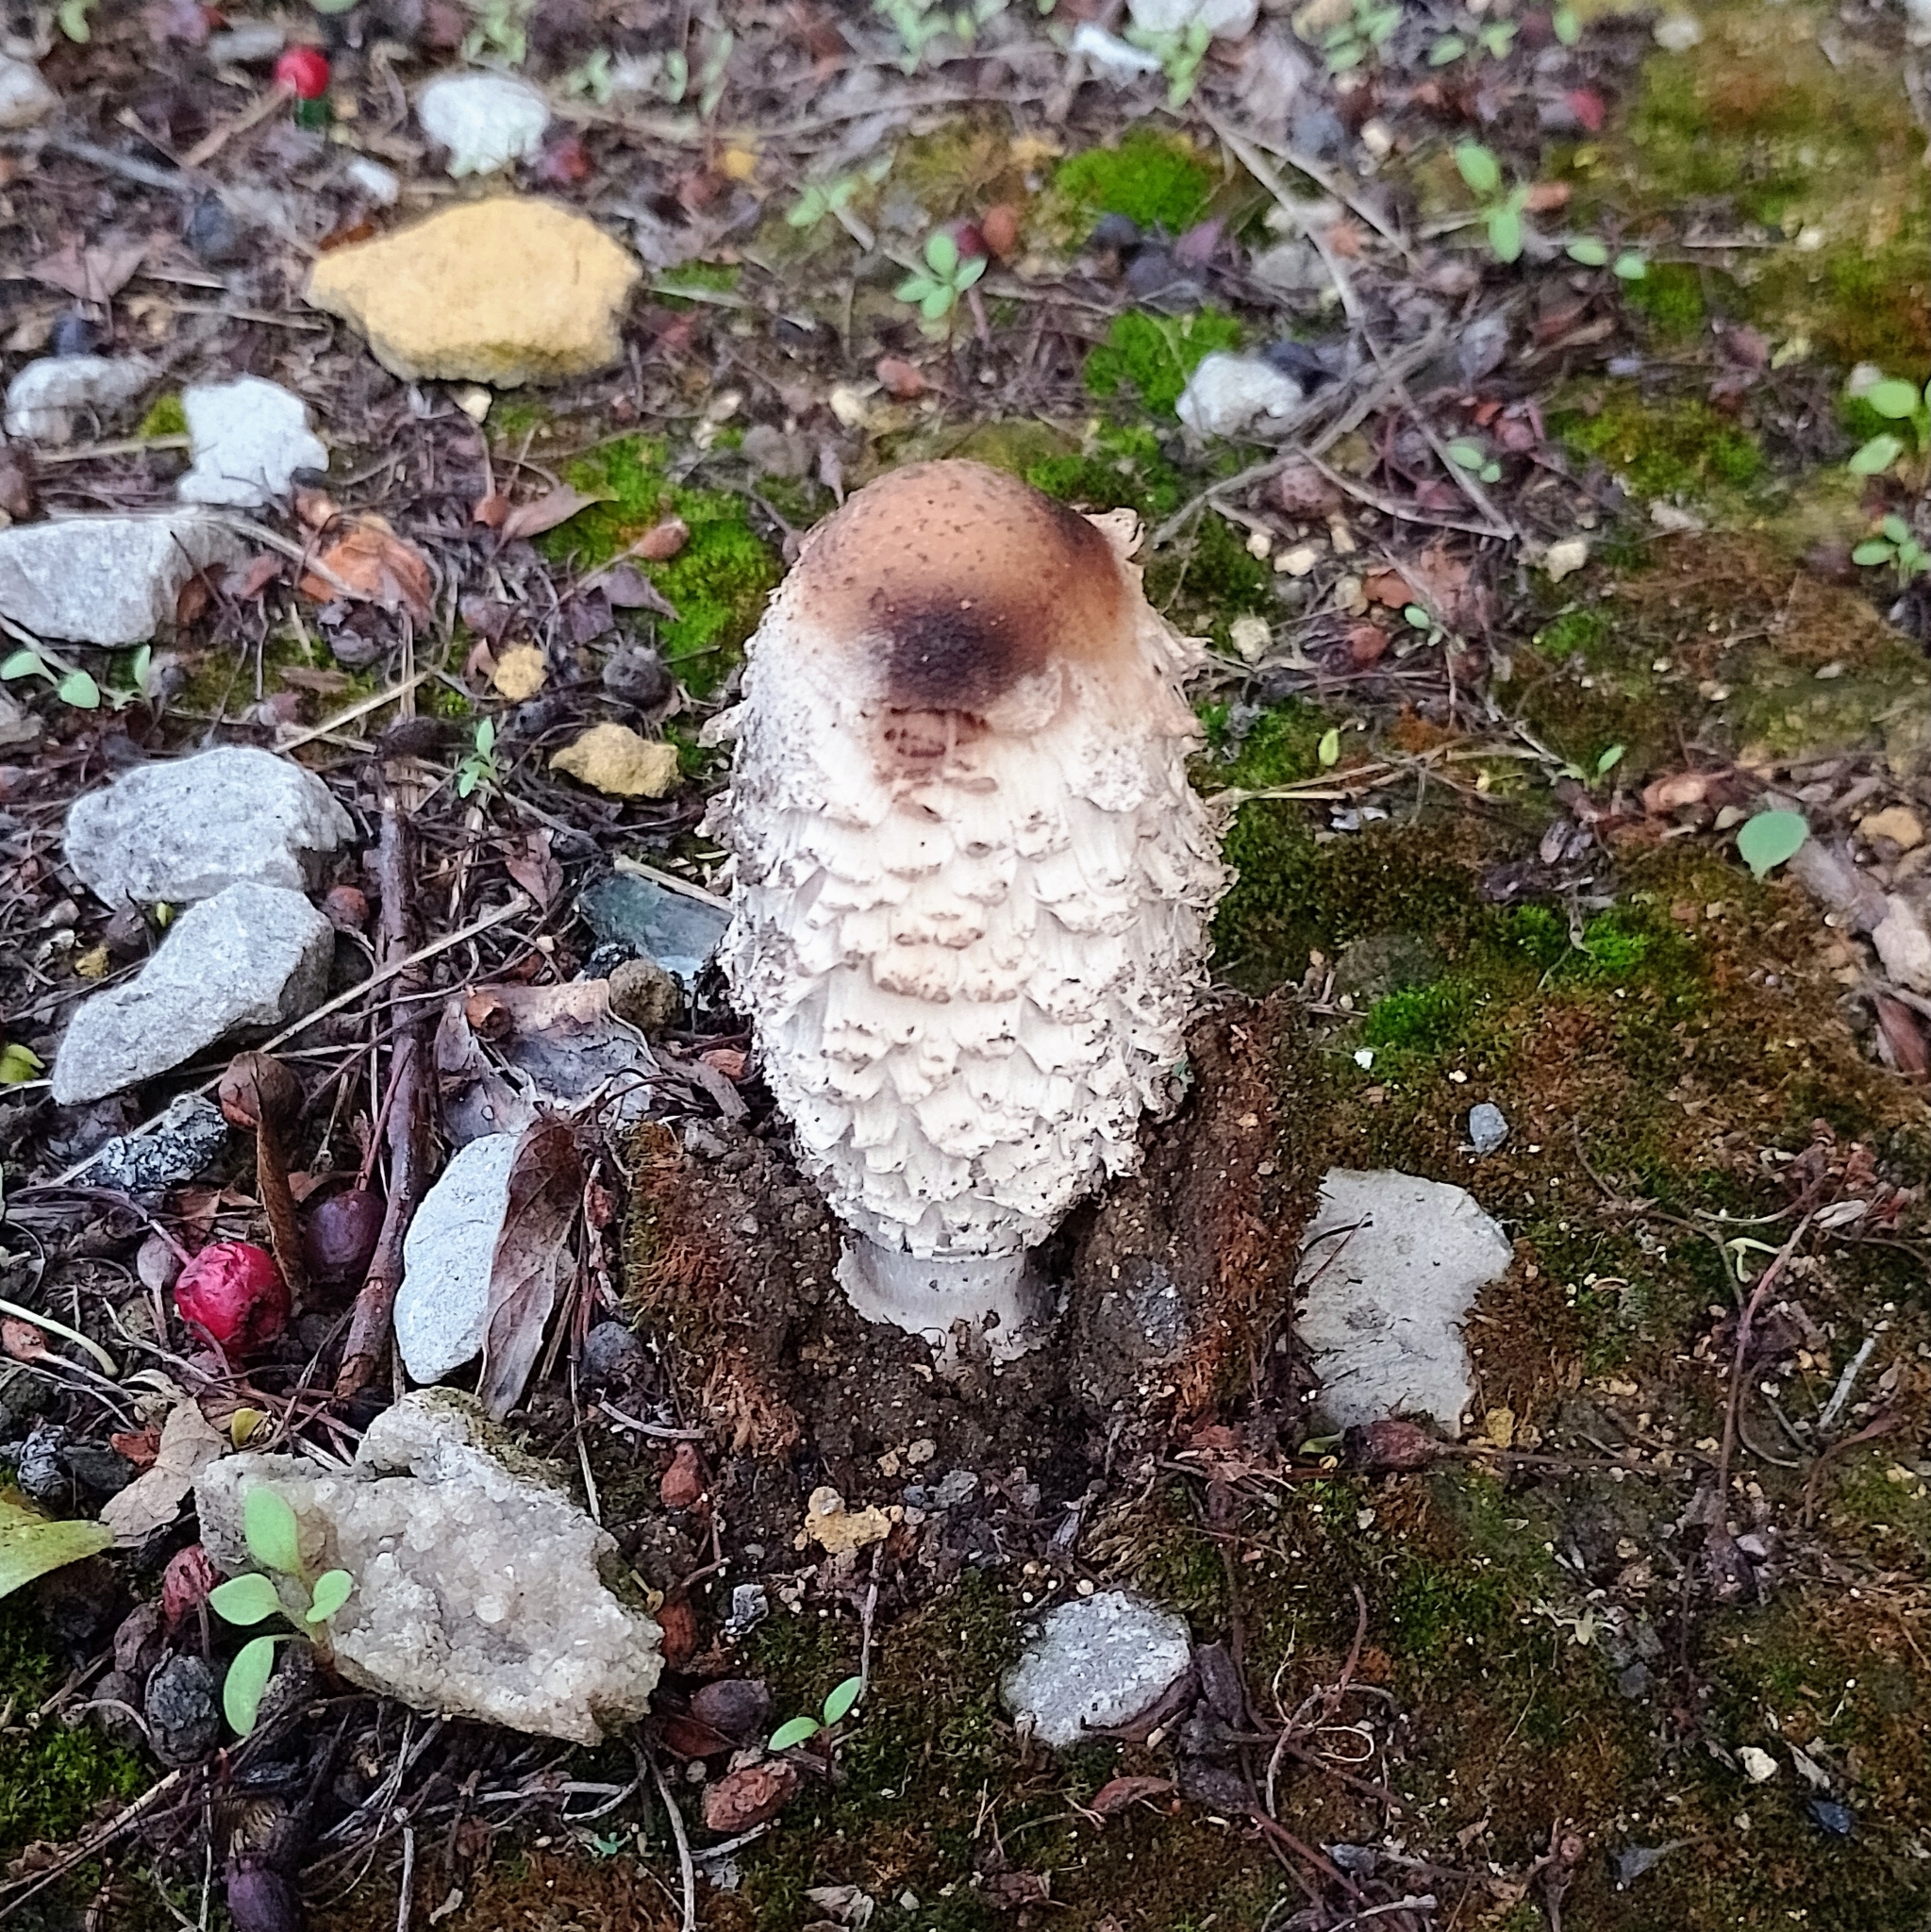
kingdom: Fungi
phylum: Basidiomycota
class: Agaricomycetes
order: Agaricales
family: Agaricaceae
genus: Coprinus
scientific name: Coprinus comatus
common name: Lawyer's wig
